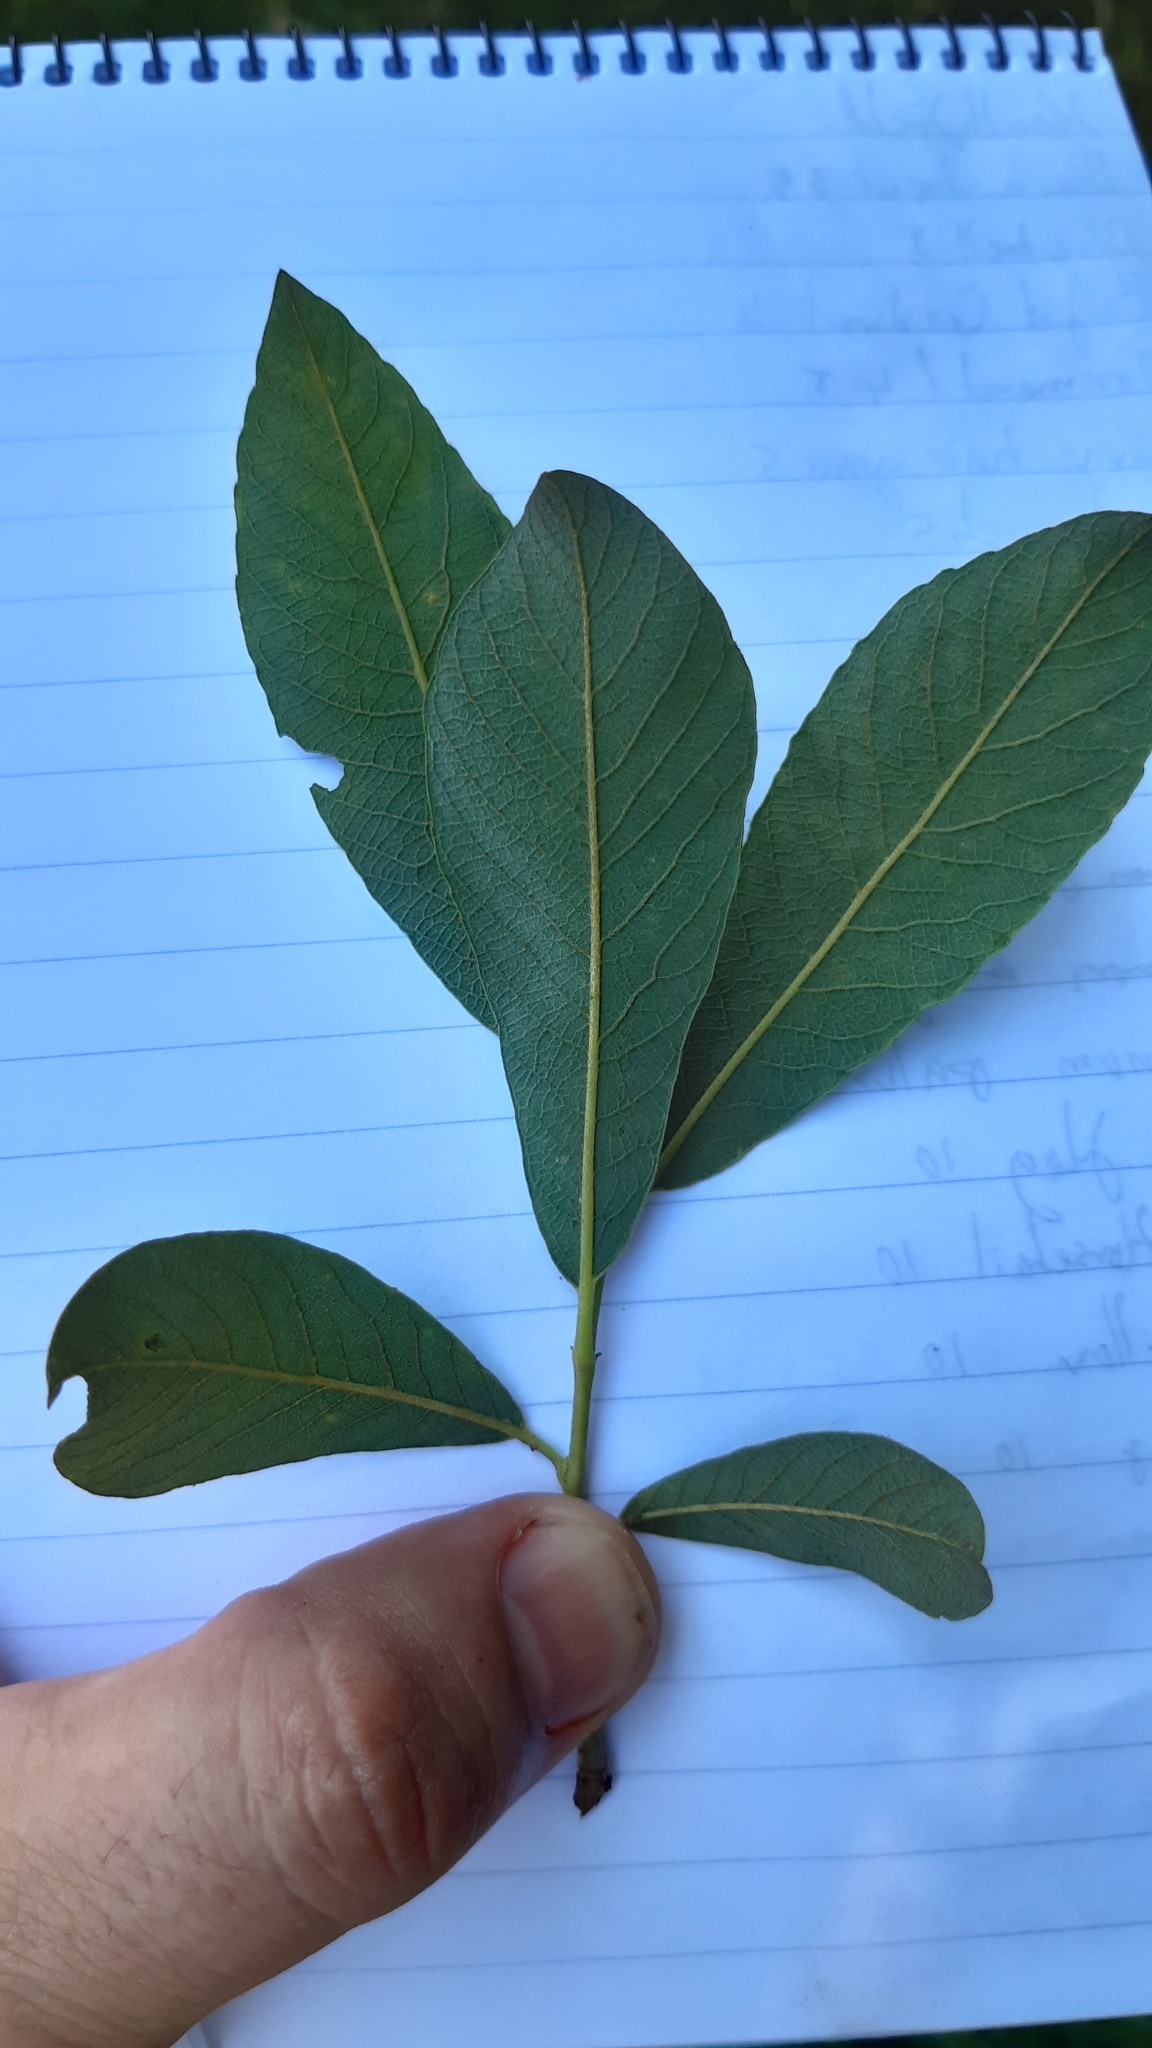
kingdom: Plantae
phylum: Tracheophyta
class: Magnoliopsida
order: Malpighiales
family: Salicaceae
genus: Salix
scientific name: Salix cinerea
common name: Common sallow
